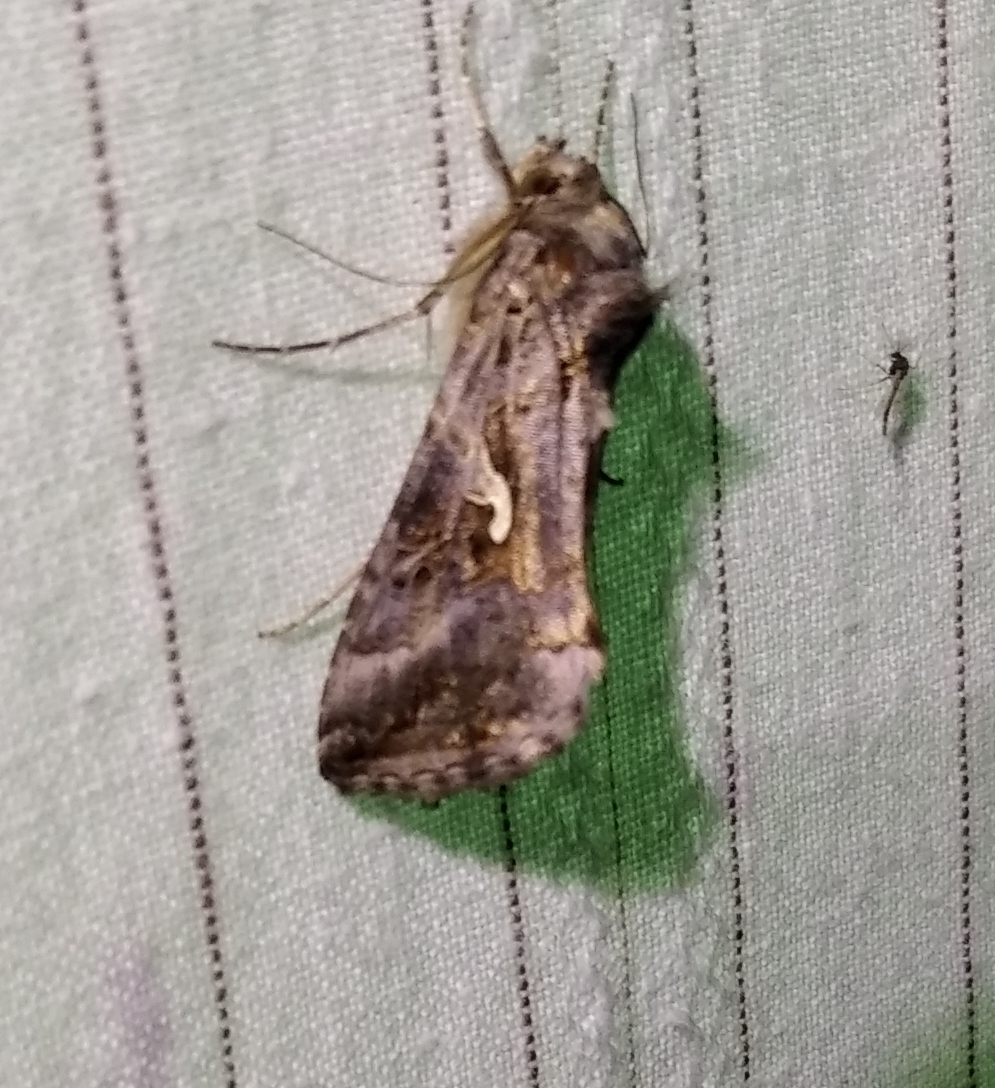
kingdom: Animalia
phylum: Arthropoda
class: Insecta
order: Lepidoptera
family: Noctuidae
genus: Autographa
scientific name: Autographa gamma
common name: Silver y
